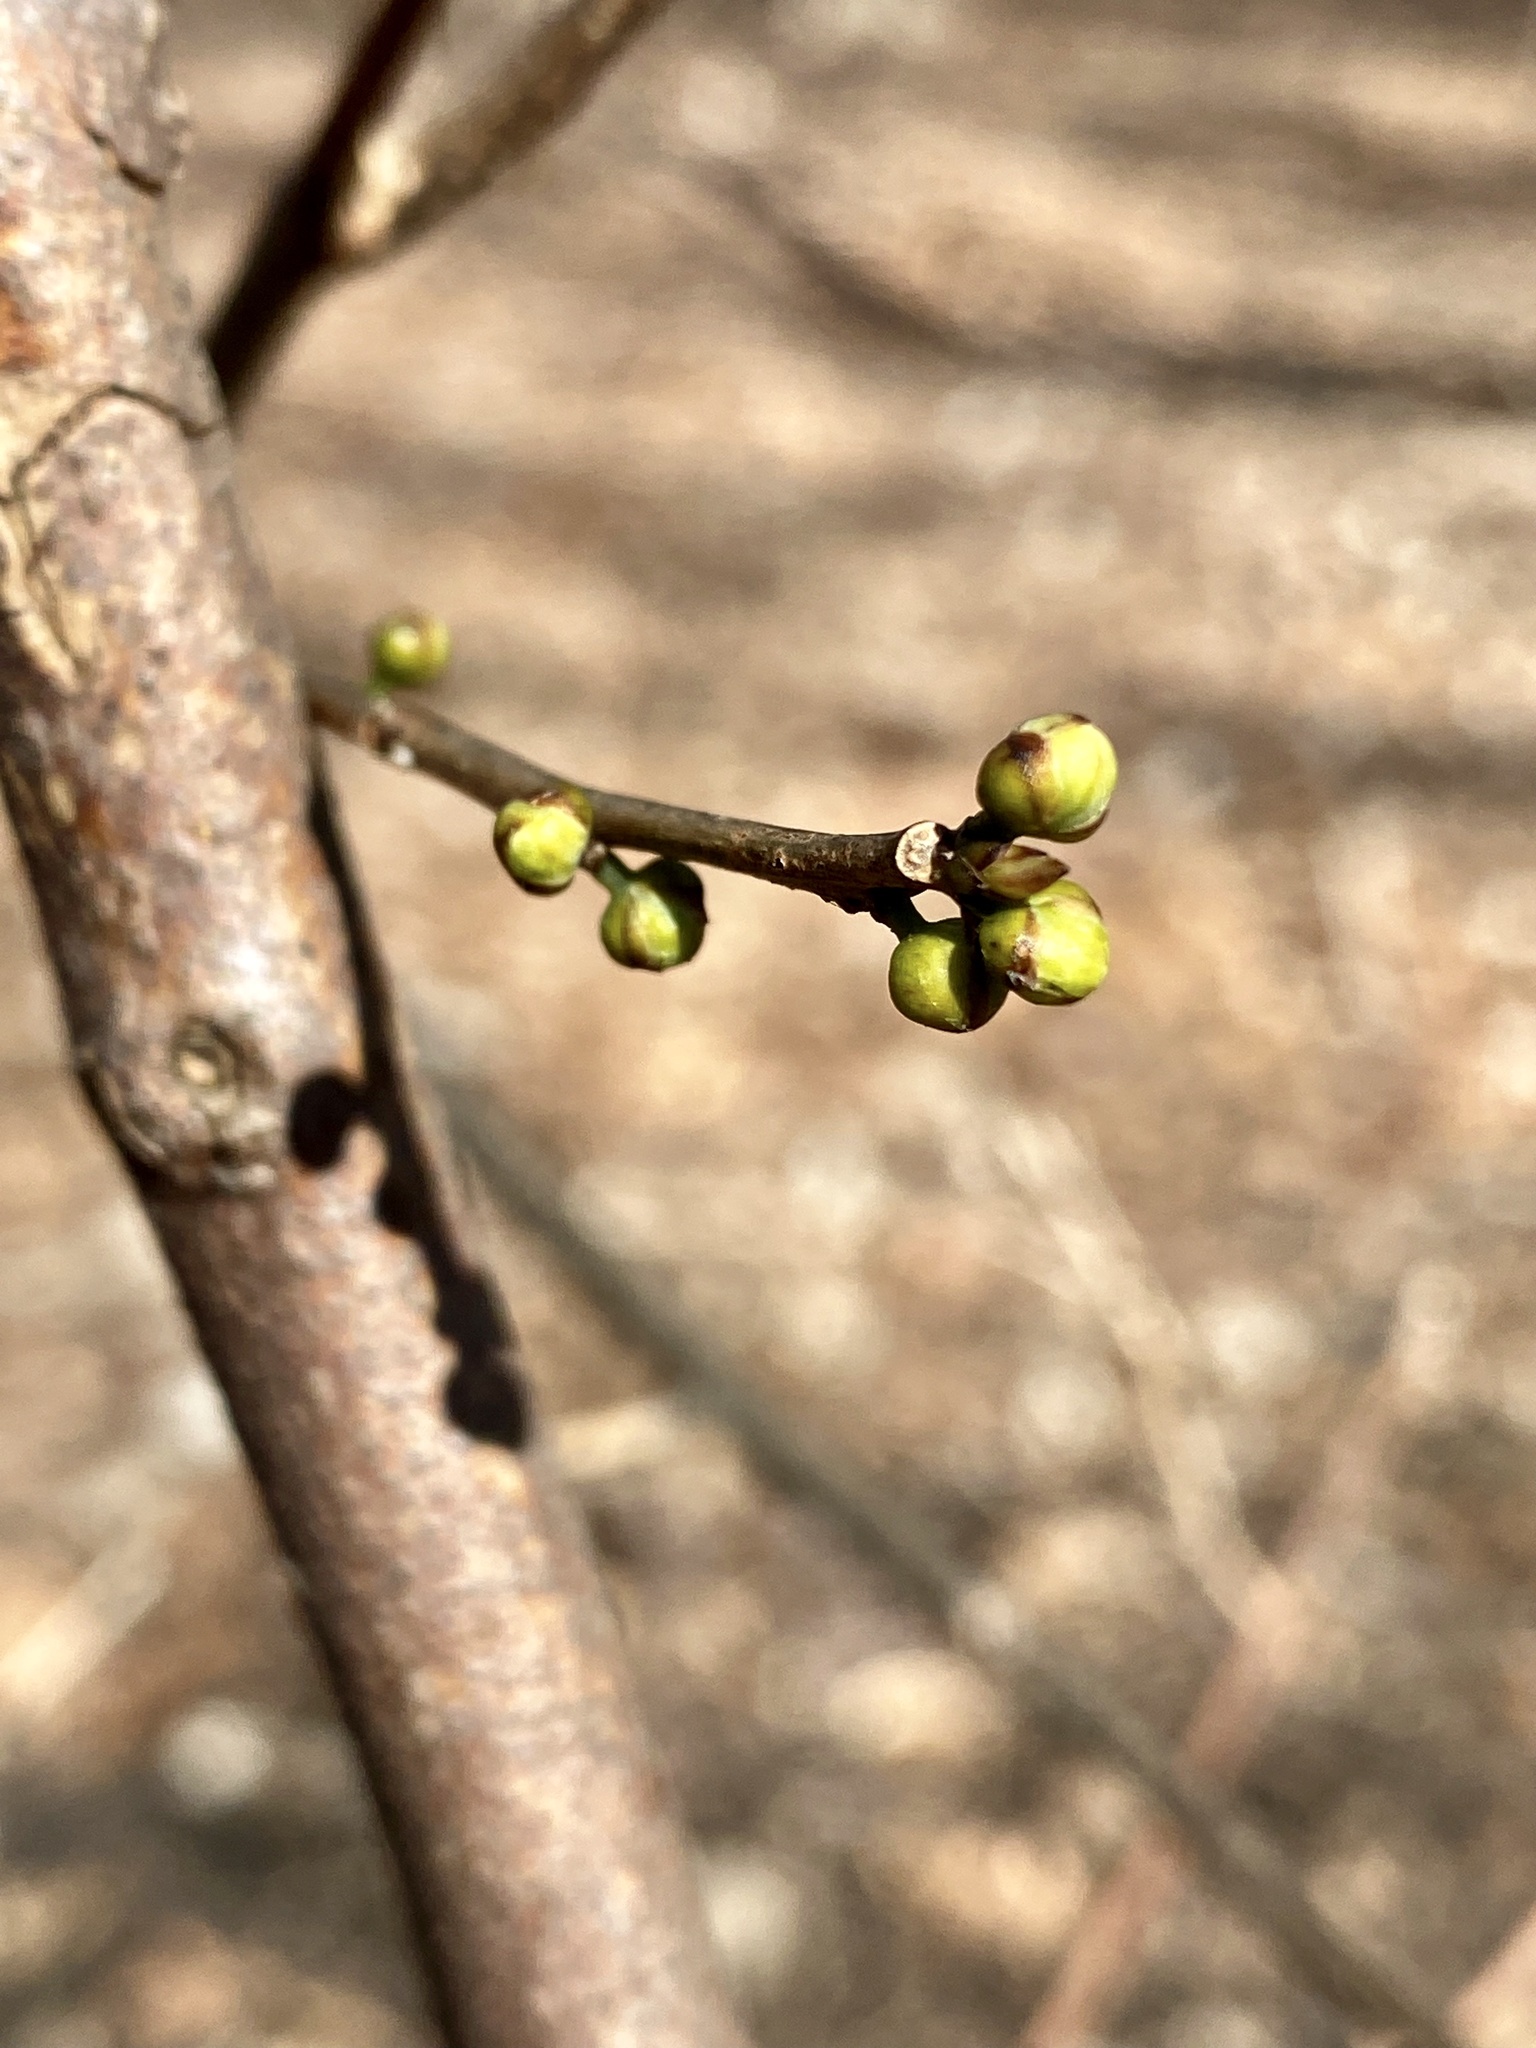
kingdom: Plantae
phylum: Tracheophyta
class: Magnoliopsida
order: Laurales
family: Lauraceae
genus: Lindera
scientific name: Lindera benzoin
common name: Spicebush
